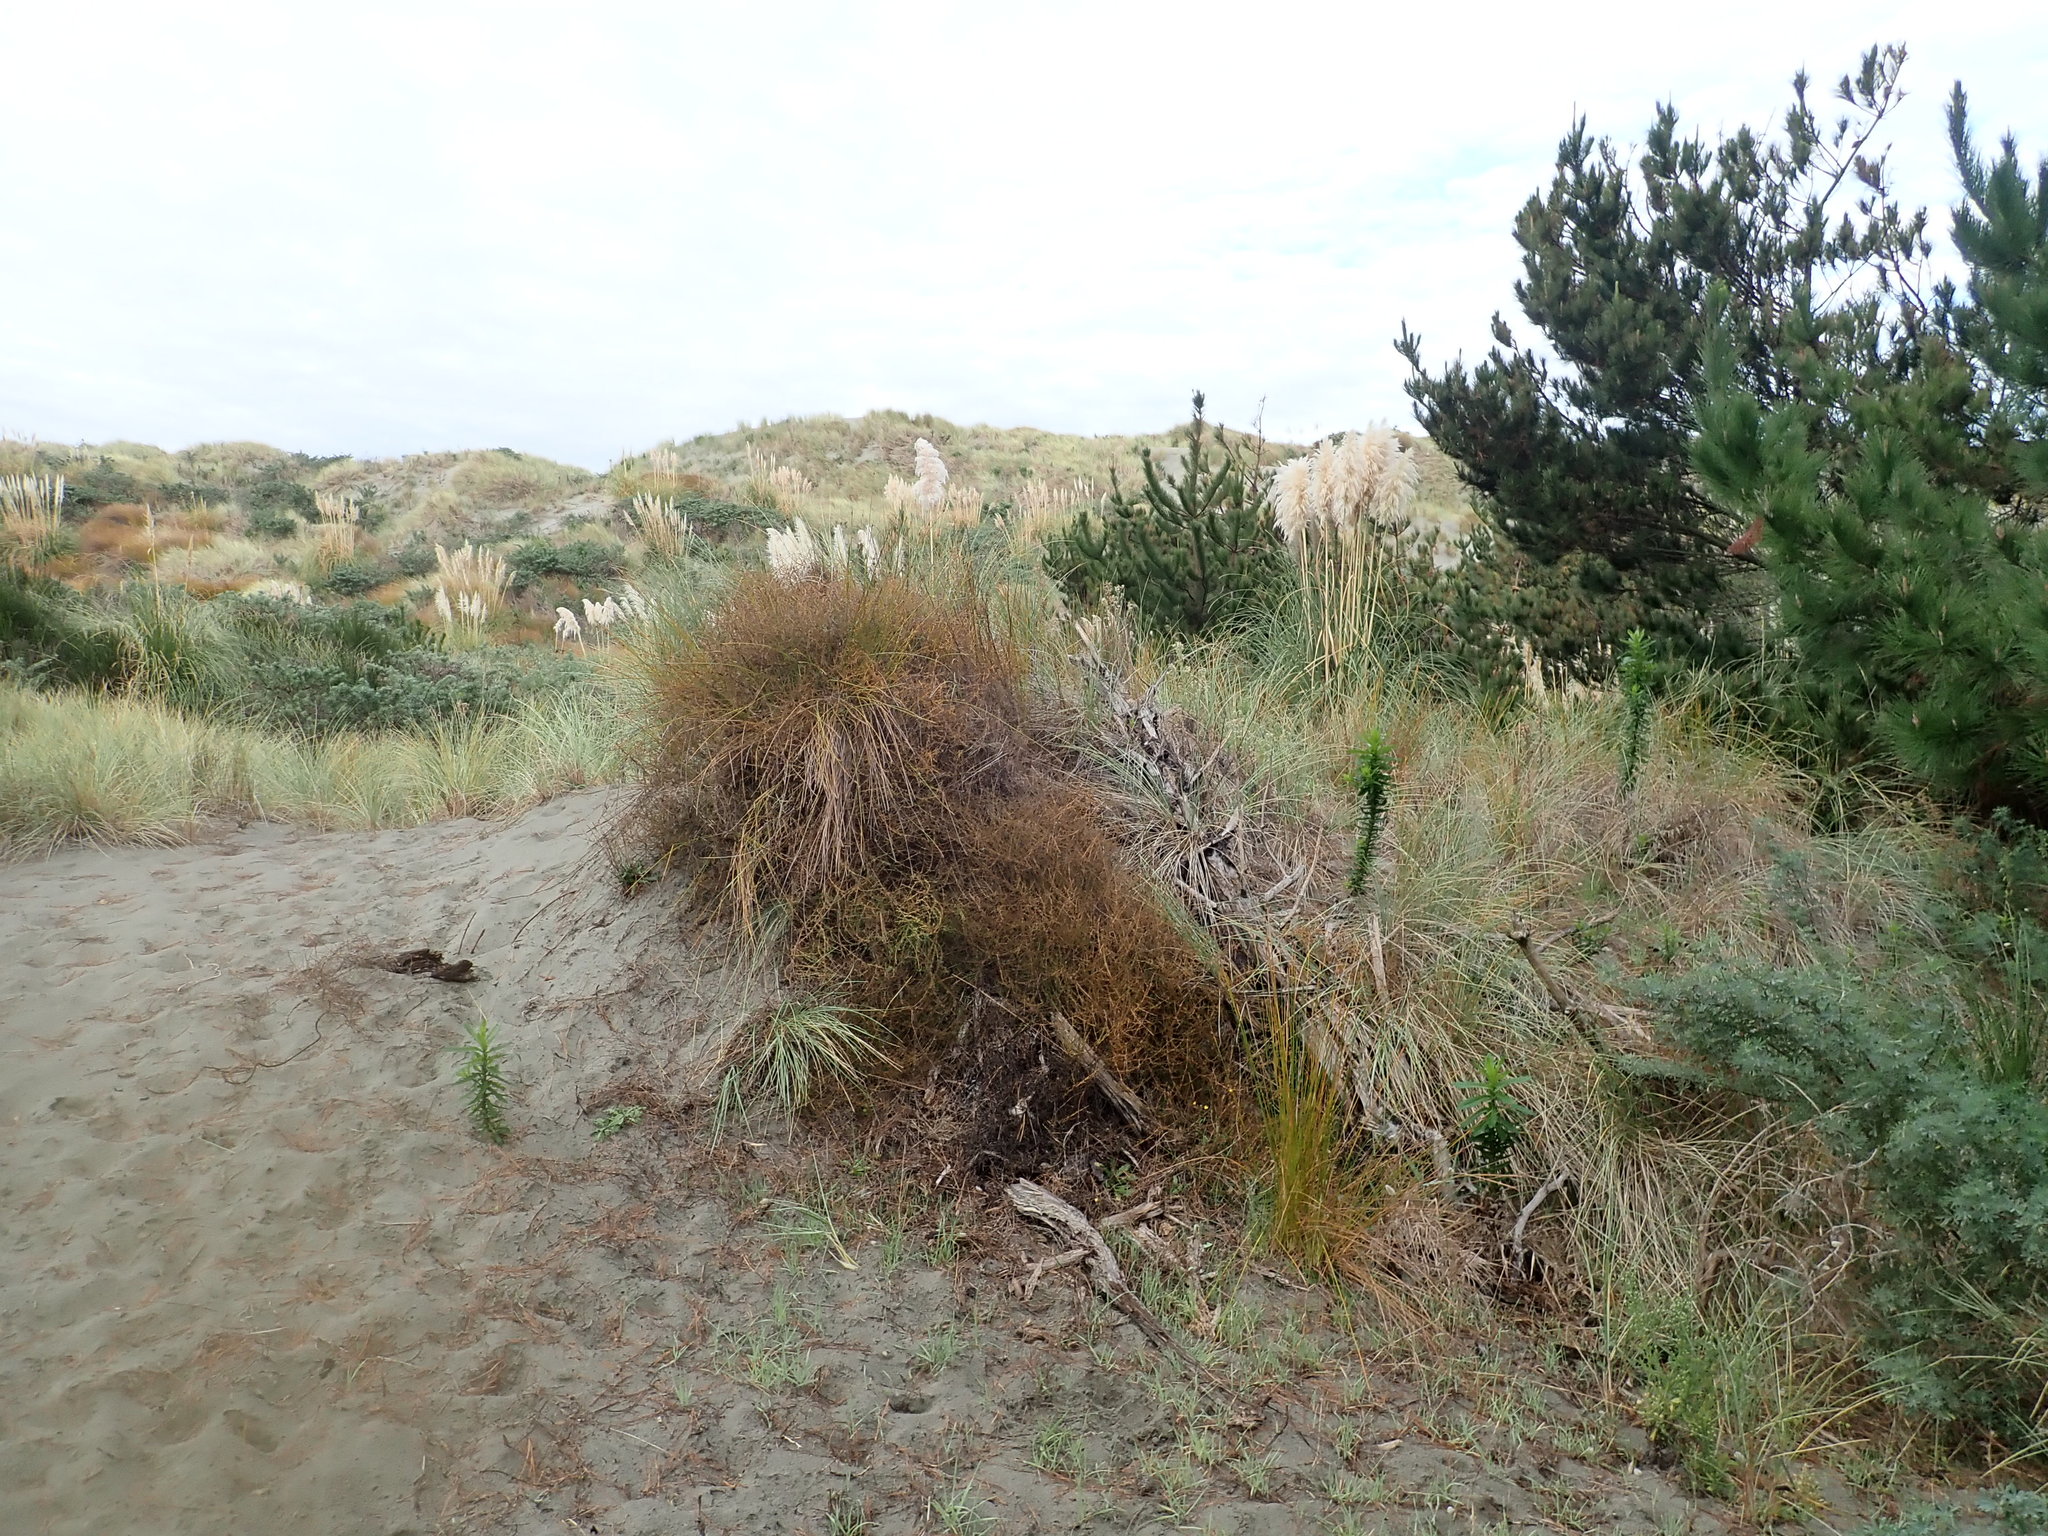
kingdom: Plantae
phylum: Tracheophyta
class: Magnoliopsida
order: Gentianales
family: Rubiaceae
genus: Coprosma
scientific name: Coprosma acerosa
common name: Sand coprosma
